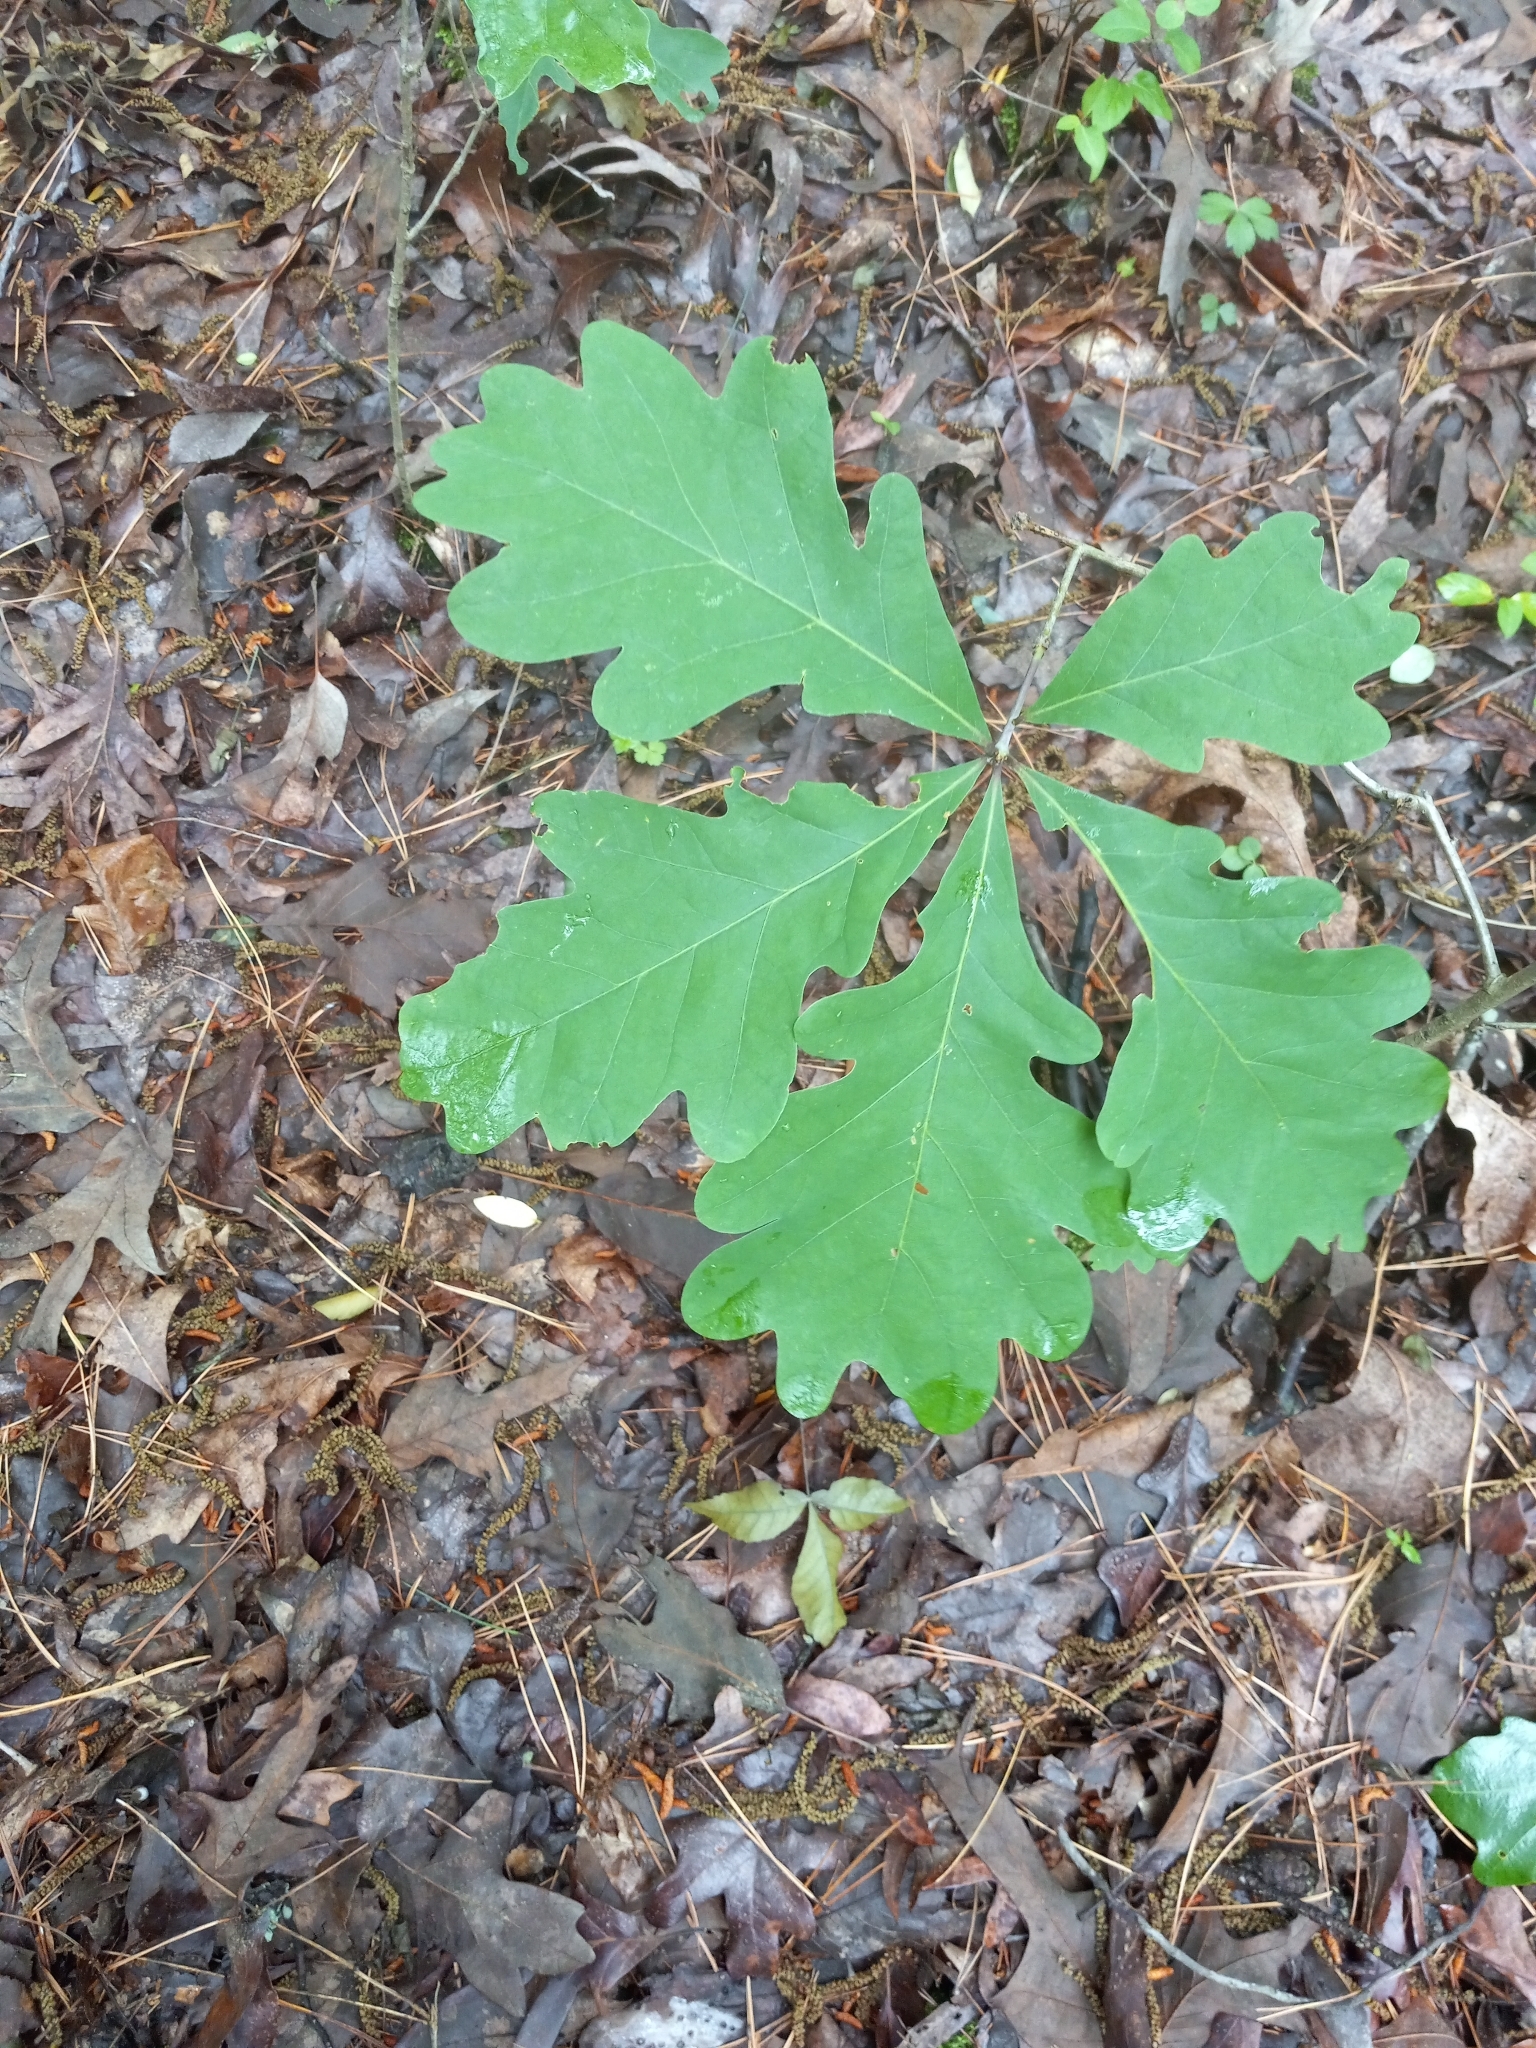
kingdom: Plantae
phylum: Tracheophyta
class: Magnoliopsida
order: Fagales
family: Fagaceae
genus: Quercus
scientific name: Quercus alba
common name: White oak
